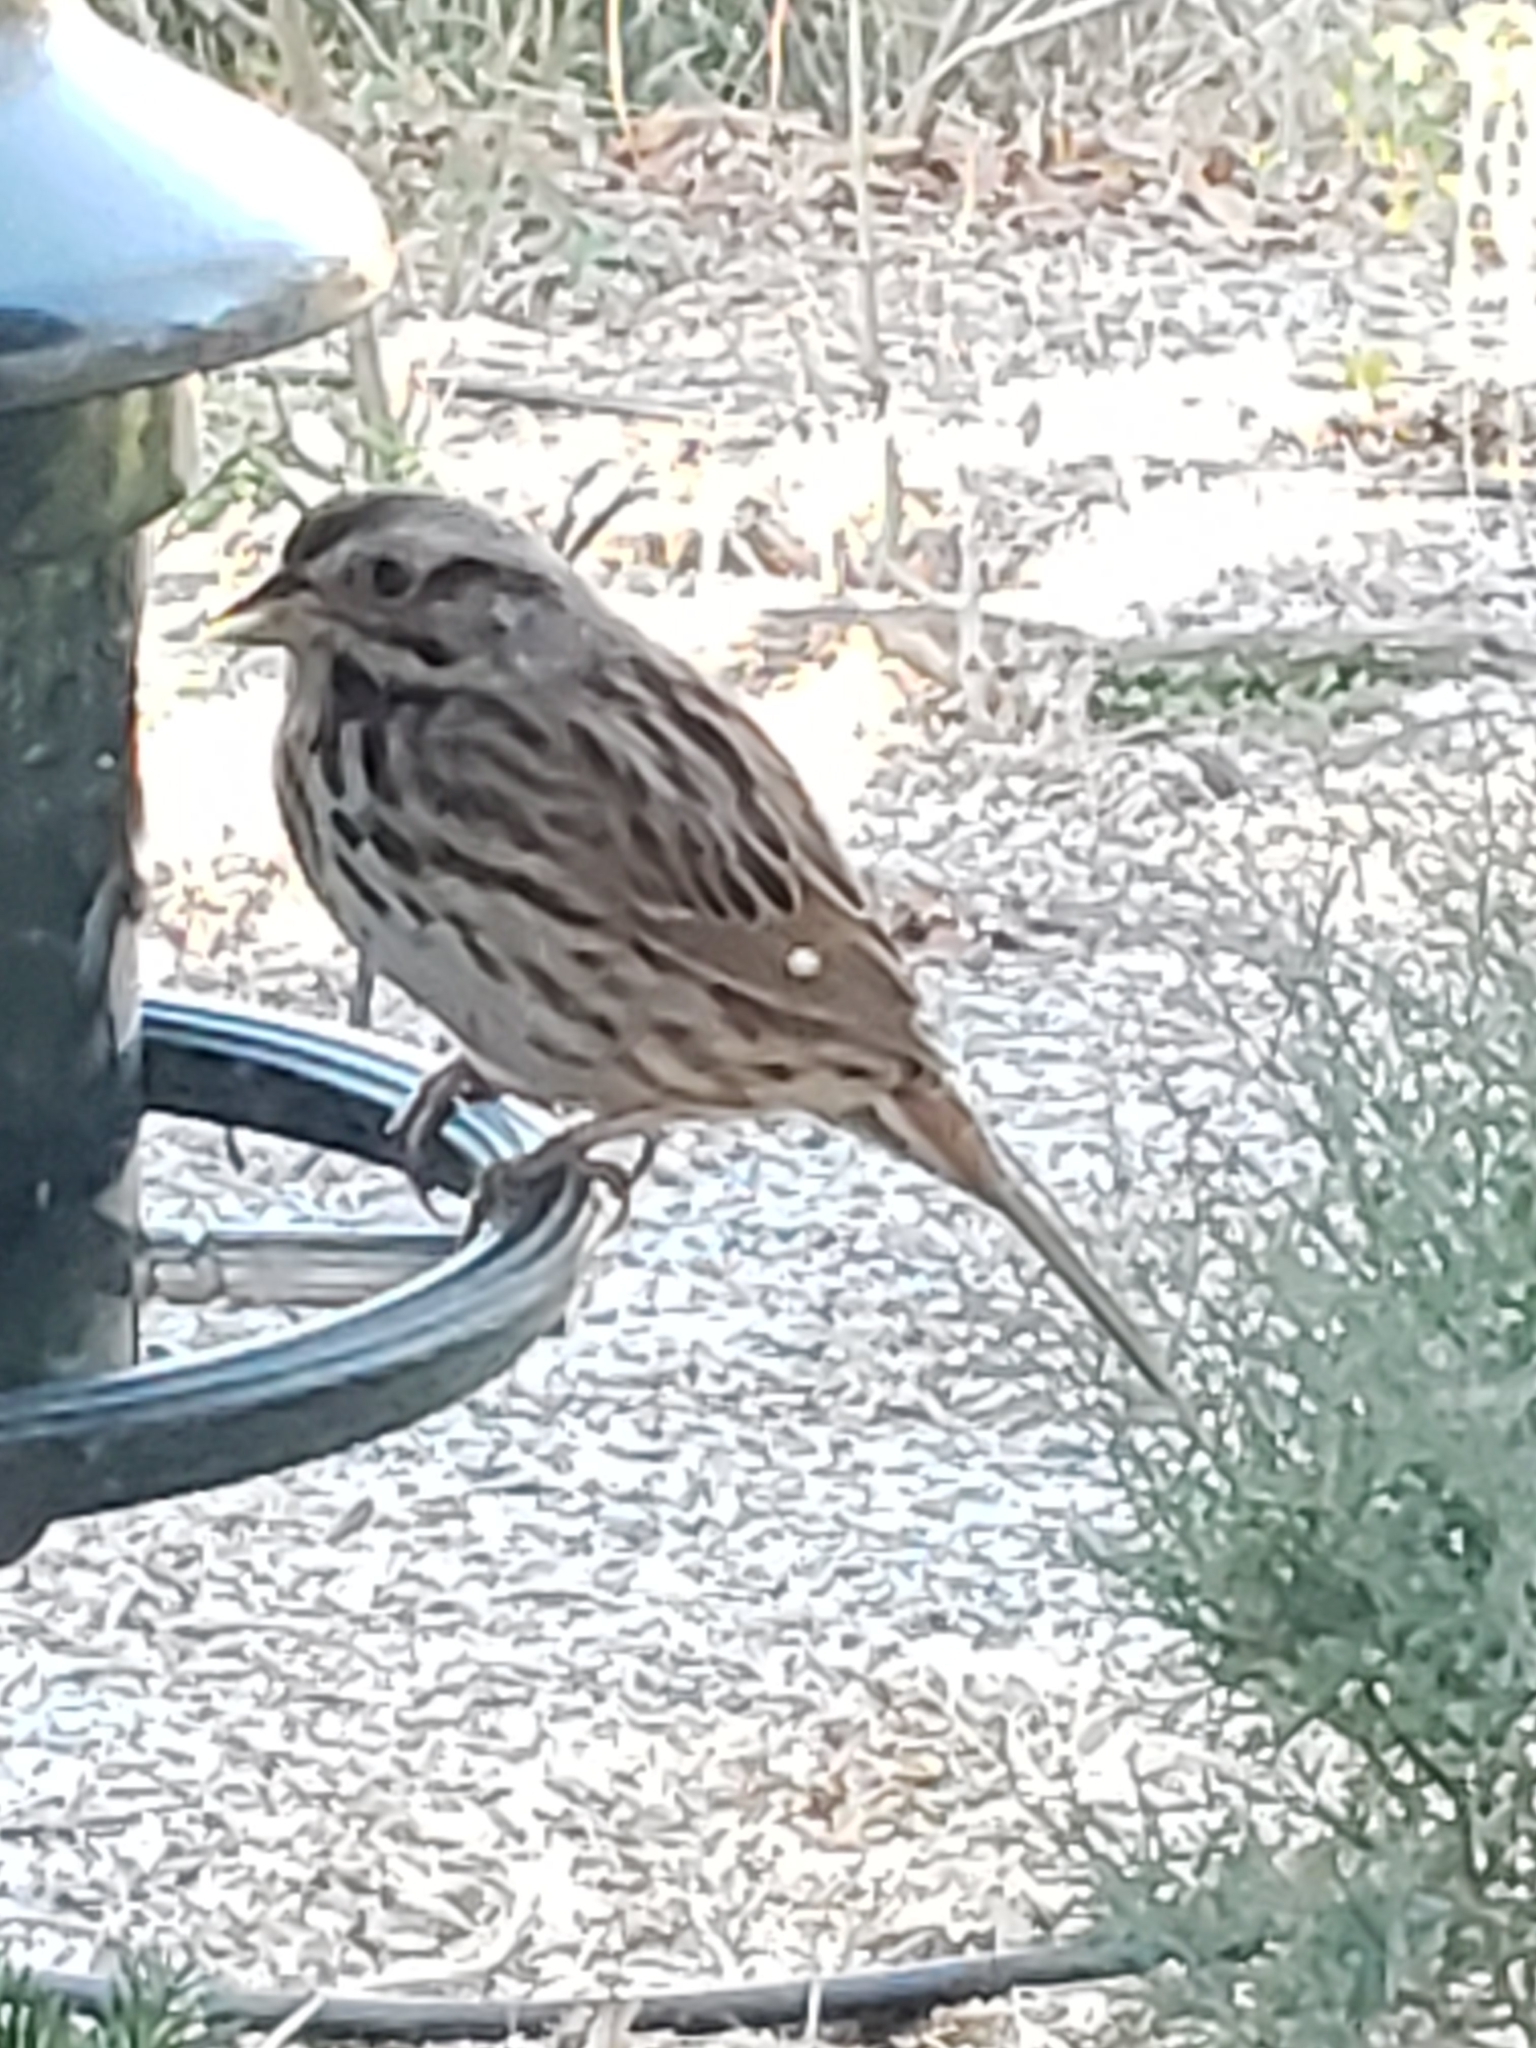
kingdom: Animalia
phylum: Chordata
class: Aves
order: Passeriformes
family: Passerellidae
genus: Melospiza
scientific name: Melospiza melodia
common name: Song sparrow
